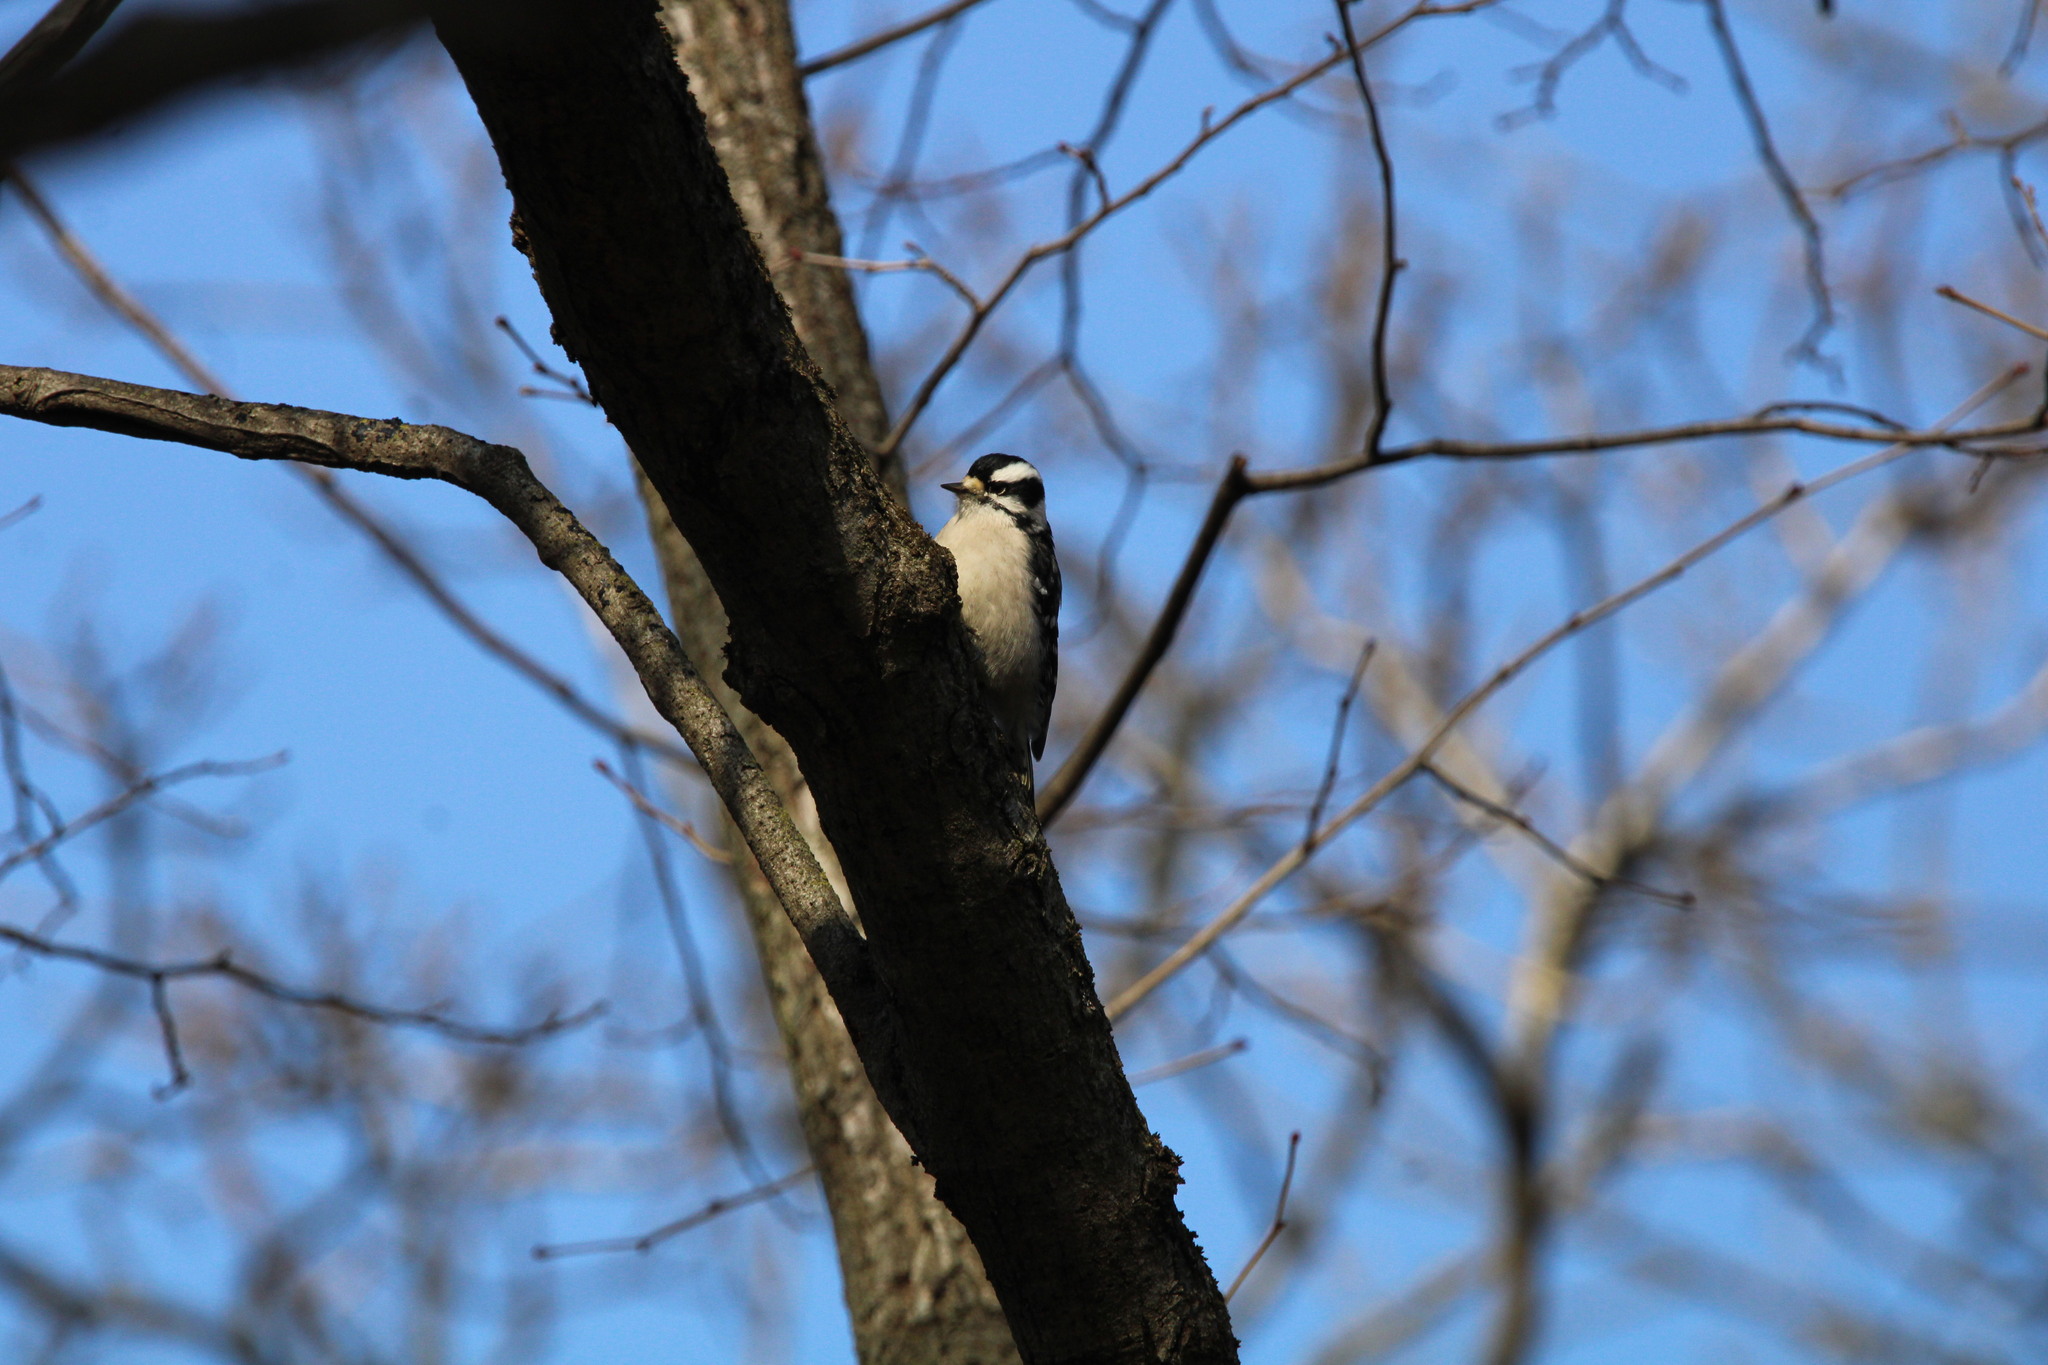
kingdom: Animalia
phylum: Chordata
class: Aves
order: Piciformes
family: Picidae
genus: Dryobates
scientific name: Dryobates pubescens
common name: Downy woodpecker
